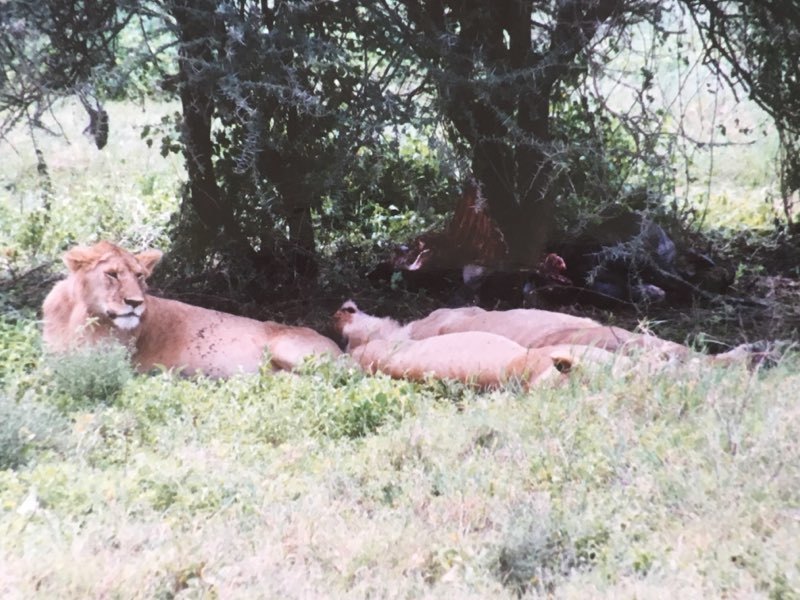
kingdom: Animalia
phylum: Chordata
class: Mammalia
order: Carnivora
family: Felidae
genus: Panthera
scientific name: Panthera leo
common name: Lion
